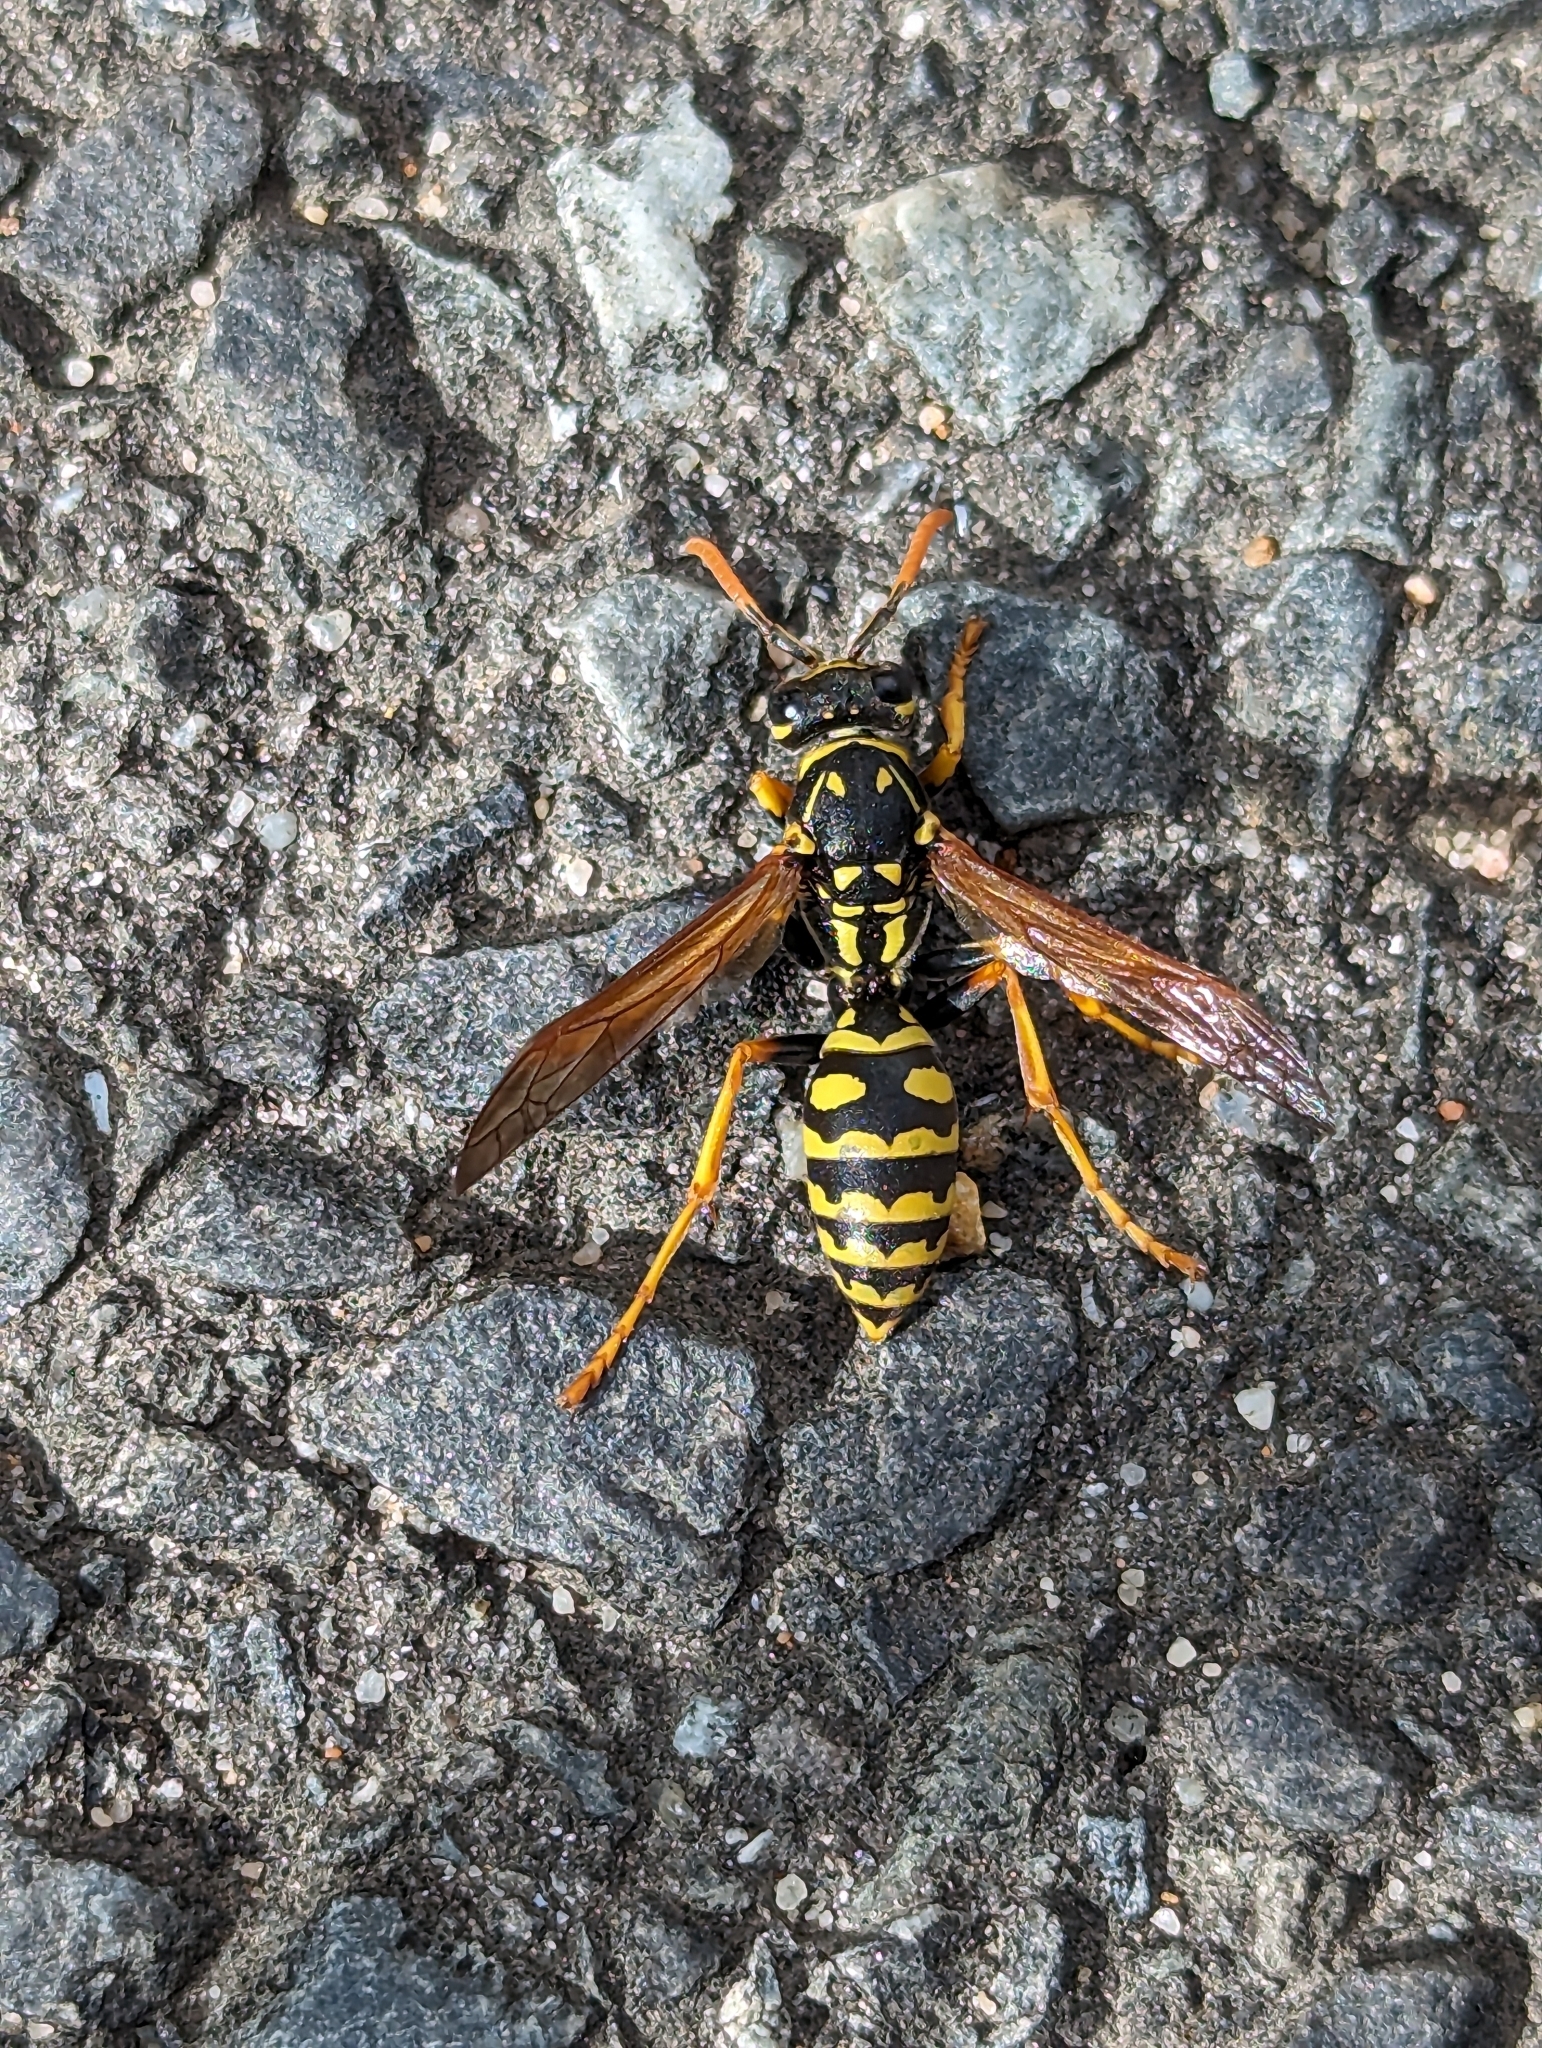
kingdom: Animalia
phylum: Arthropoda
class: Insecta
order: Hymenoptera
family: Eumenidae
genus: Polistes
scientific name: Polistes dominula
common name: Paper wasp
